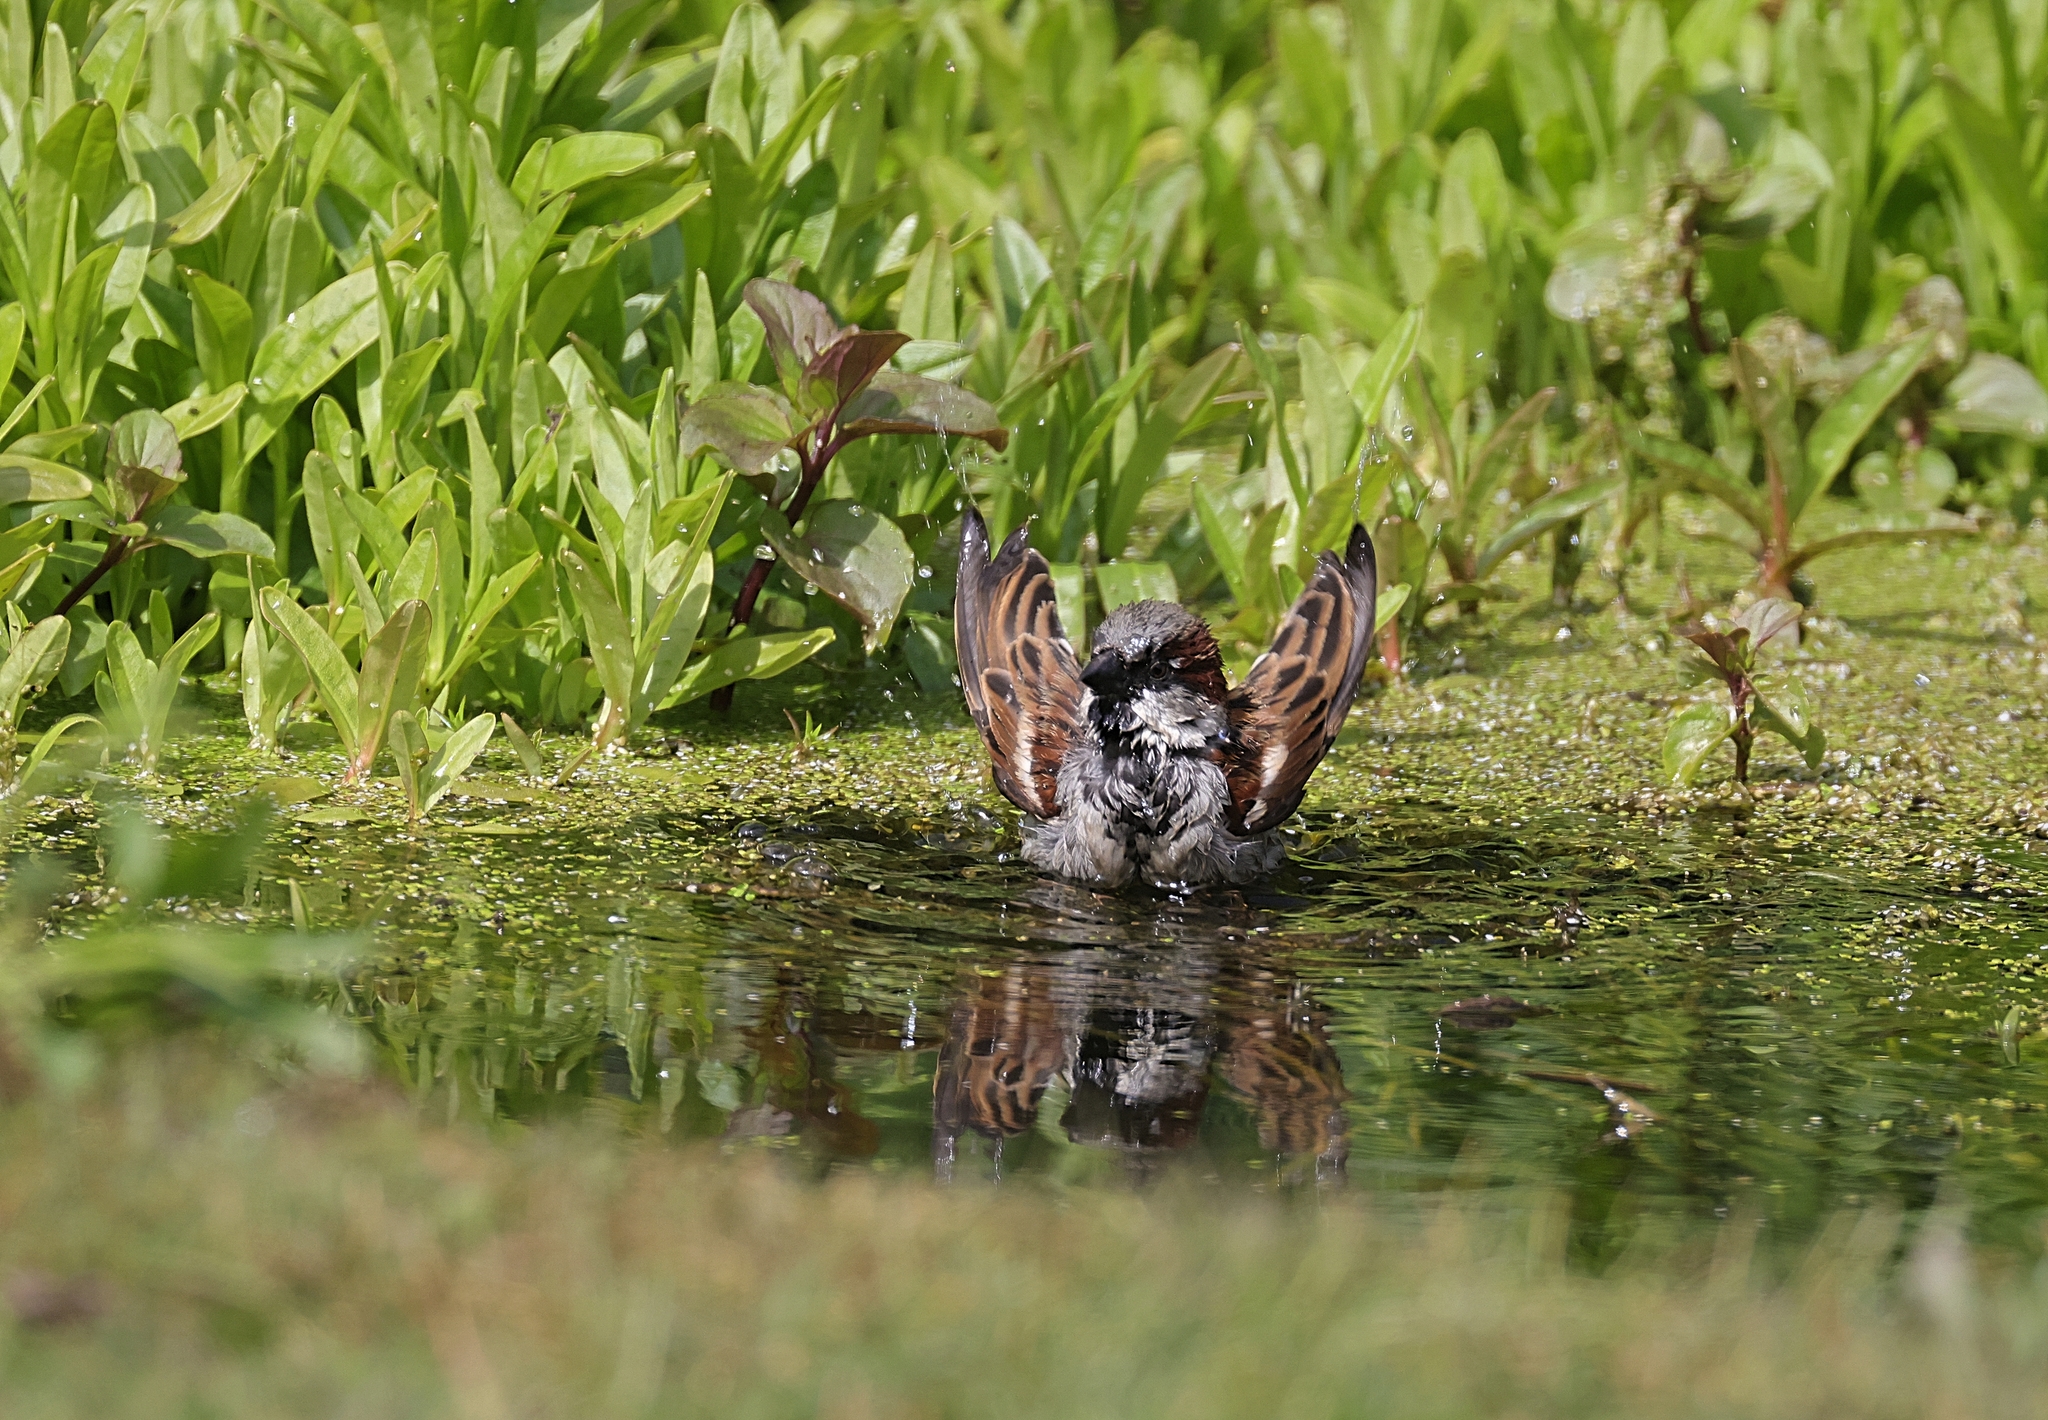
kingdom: Animalia
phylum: Chordata
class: Aves
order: Passeriformes
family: Passeridae
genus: Passer
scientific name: Passer domesticus
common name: House sparrow
